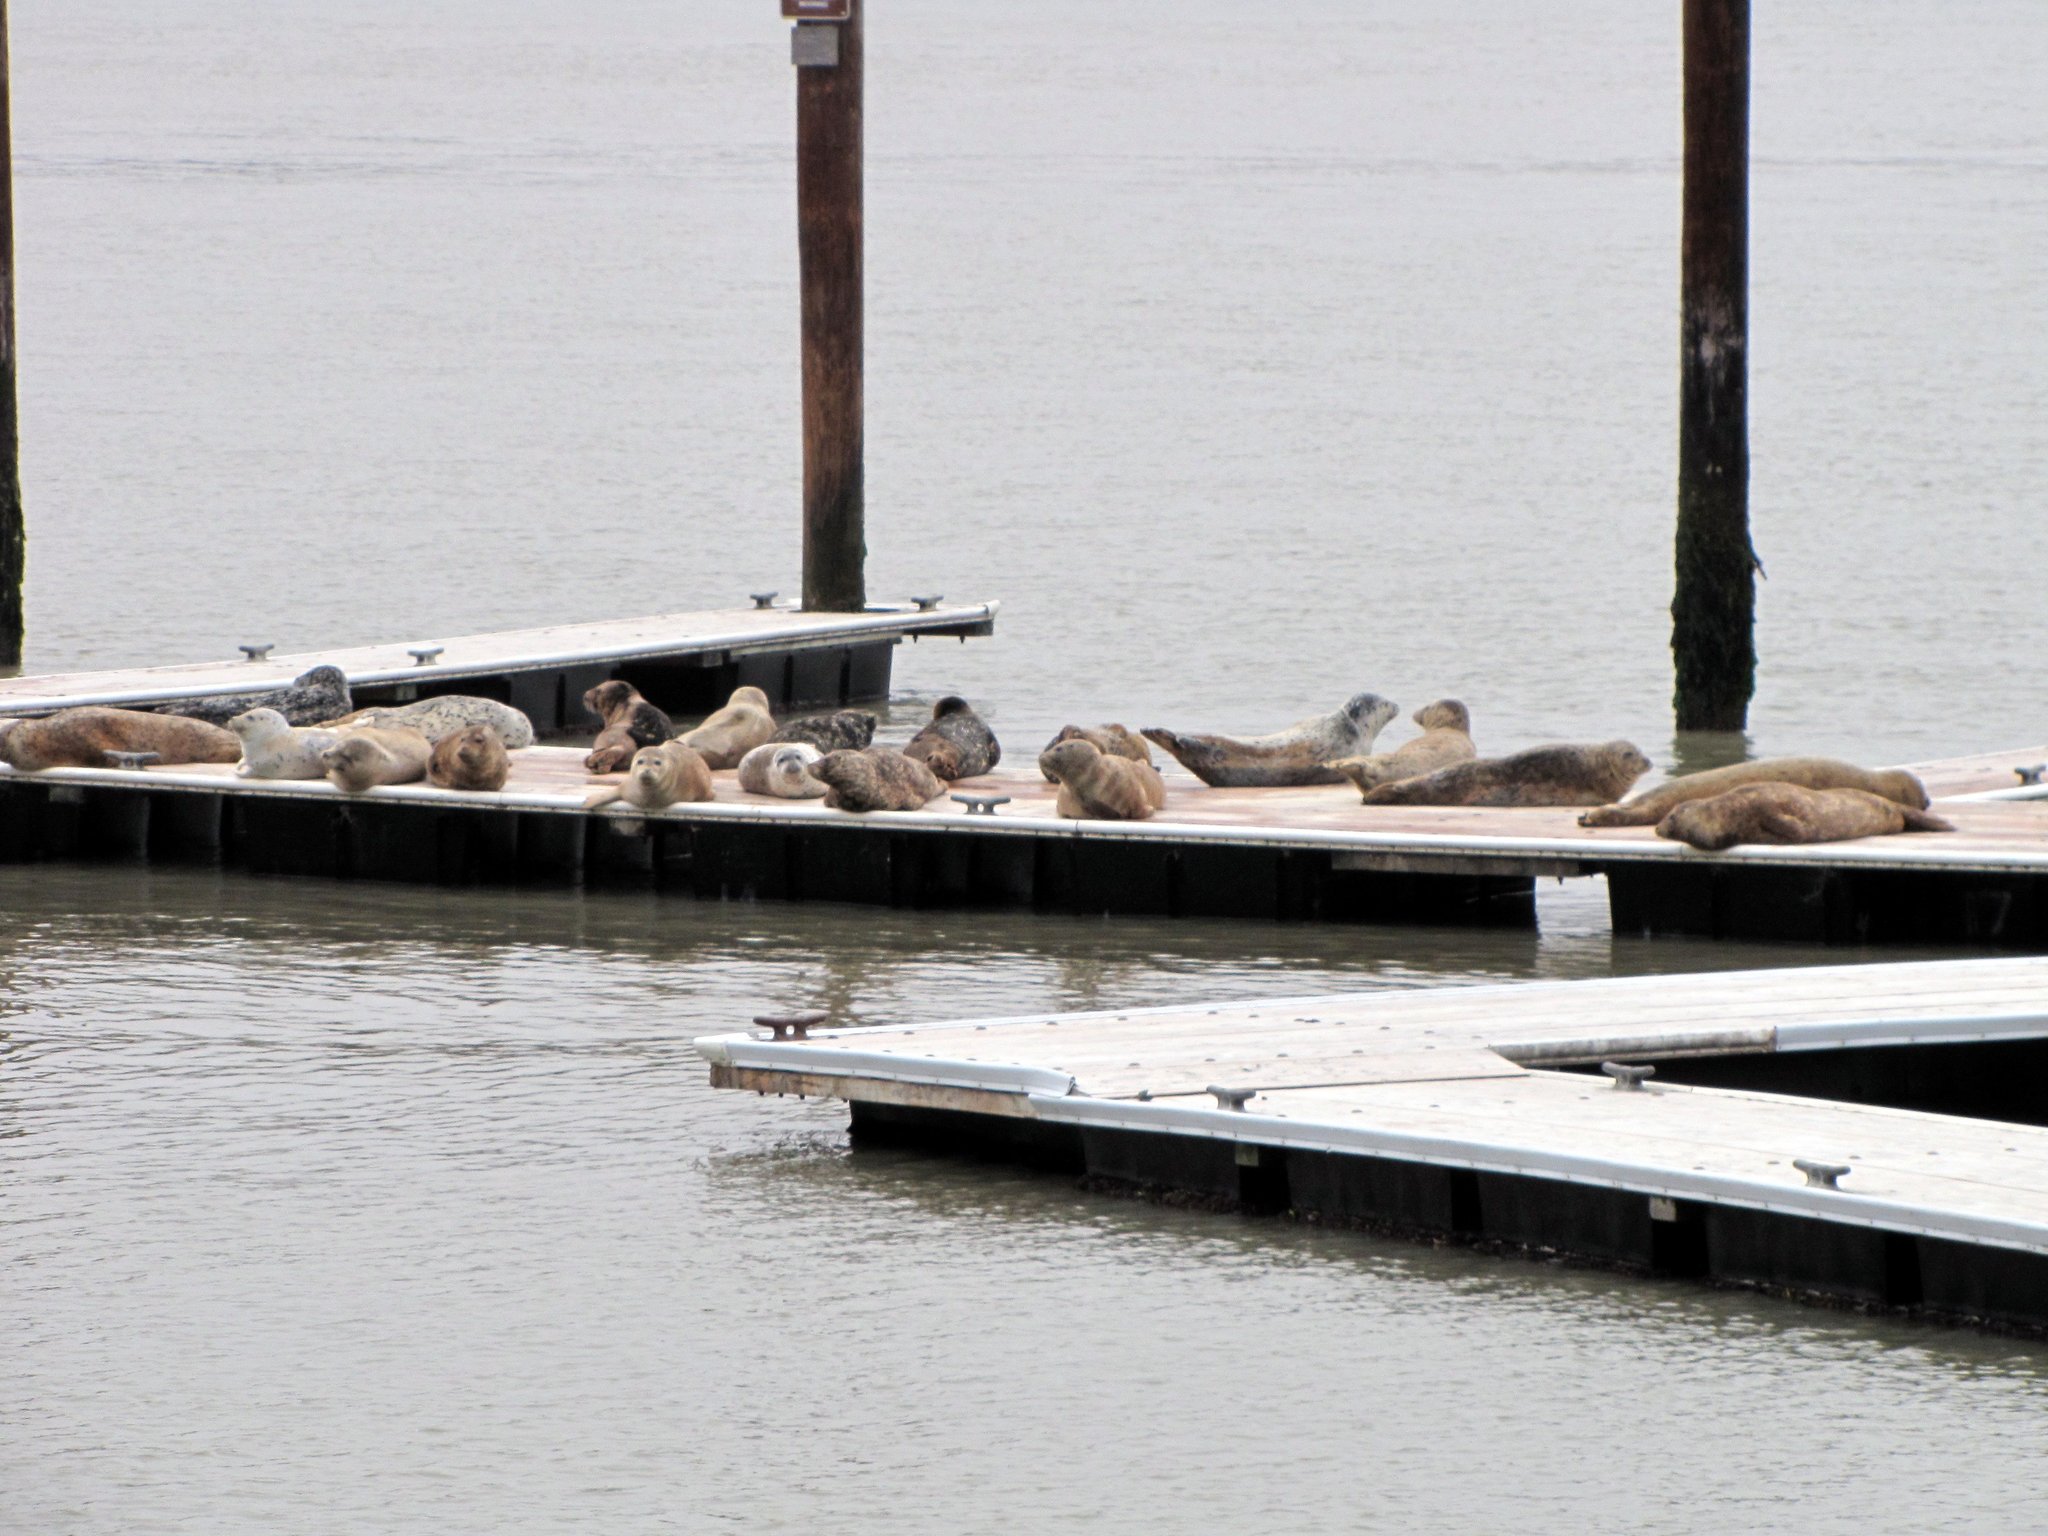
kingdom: Animalia
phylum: Chordata
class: Mammalia
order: Carnivora
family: Phocidae
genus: Phoca
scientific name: Phoca vitulina
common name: Harbor seal
